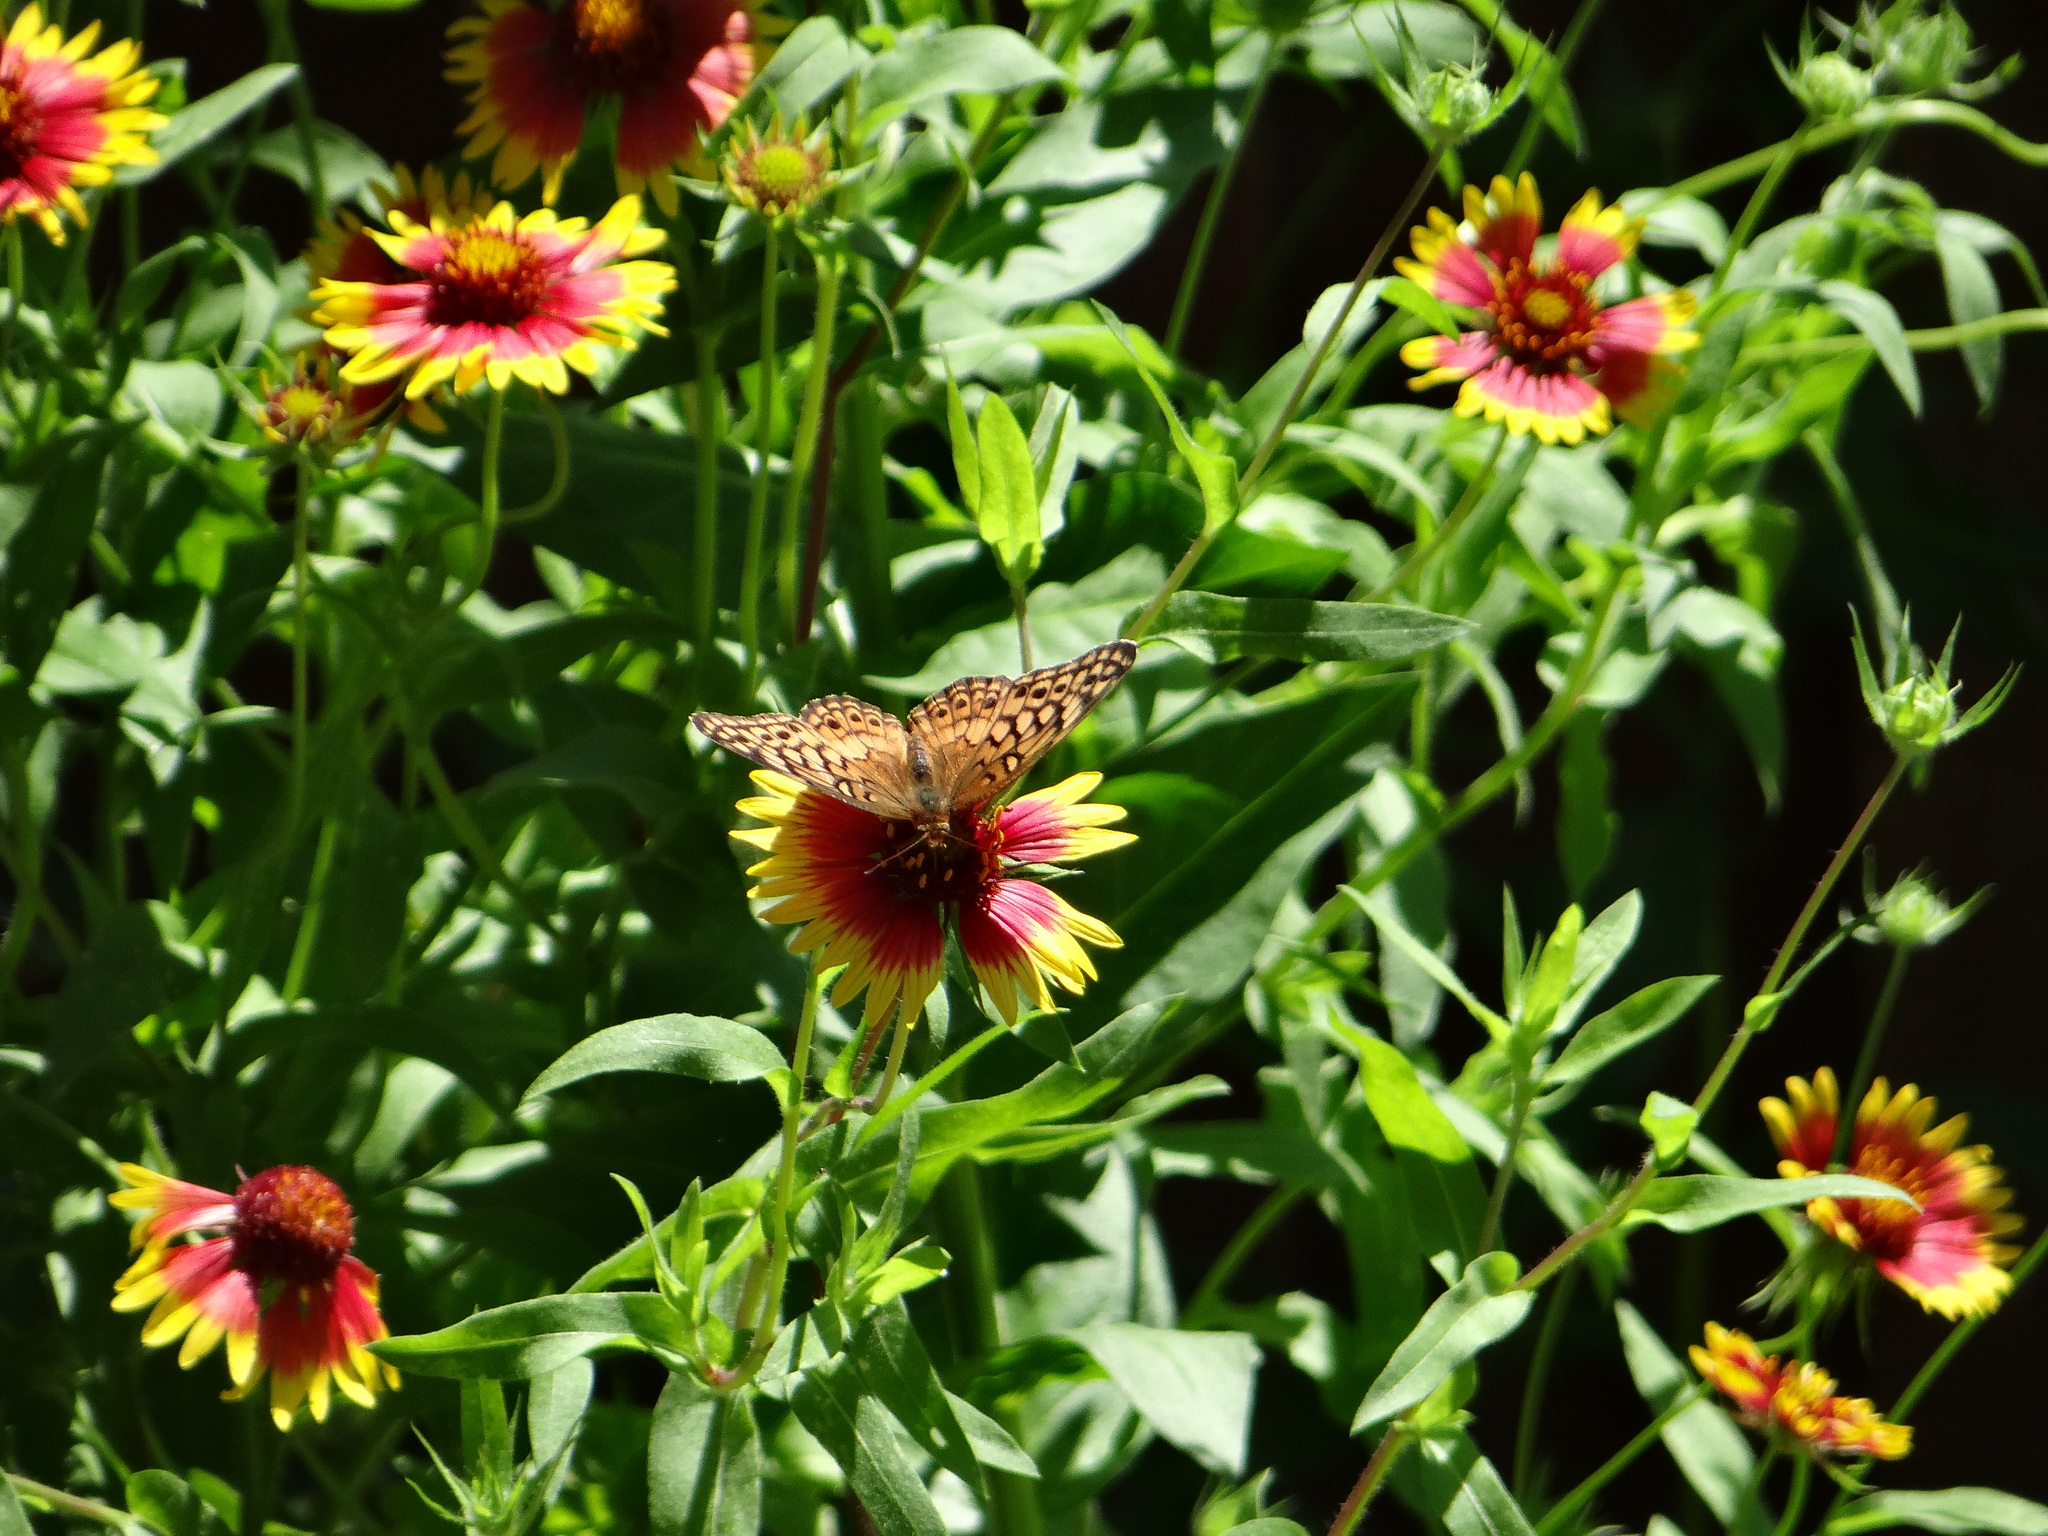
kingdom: Animalia
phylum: Arthropoda
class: Insecta
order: Lepidoptera
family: Nymphalidae
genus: Euptoieta
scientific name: Euptoieta claudia
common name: Variegated fritillary
